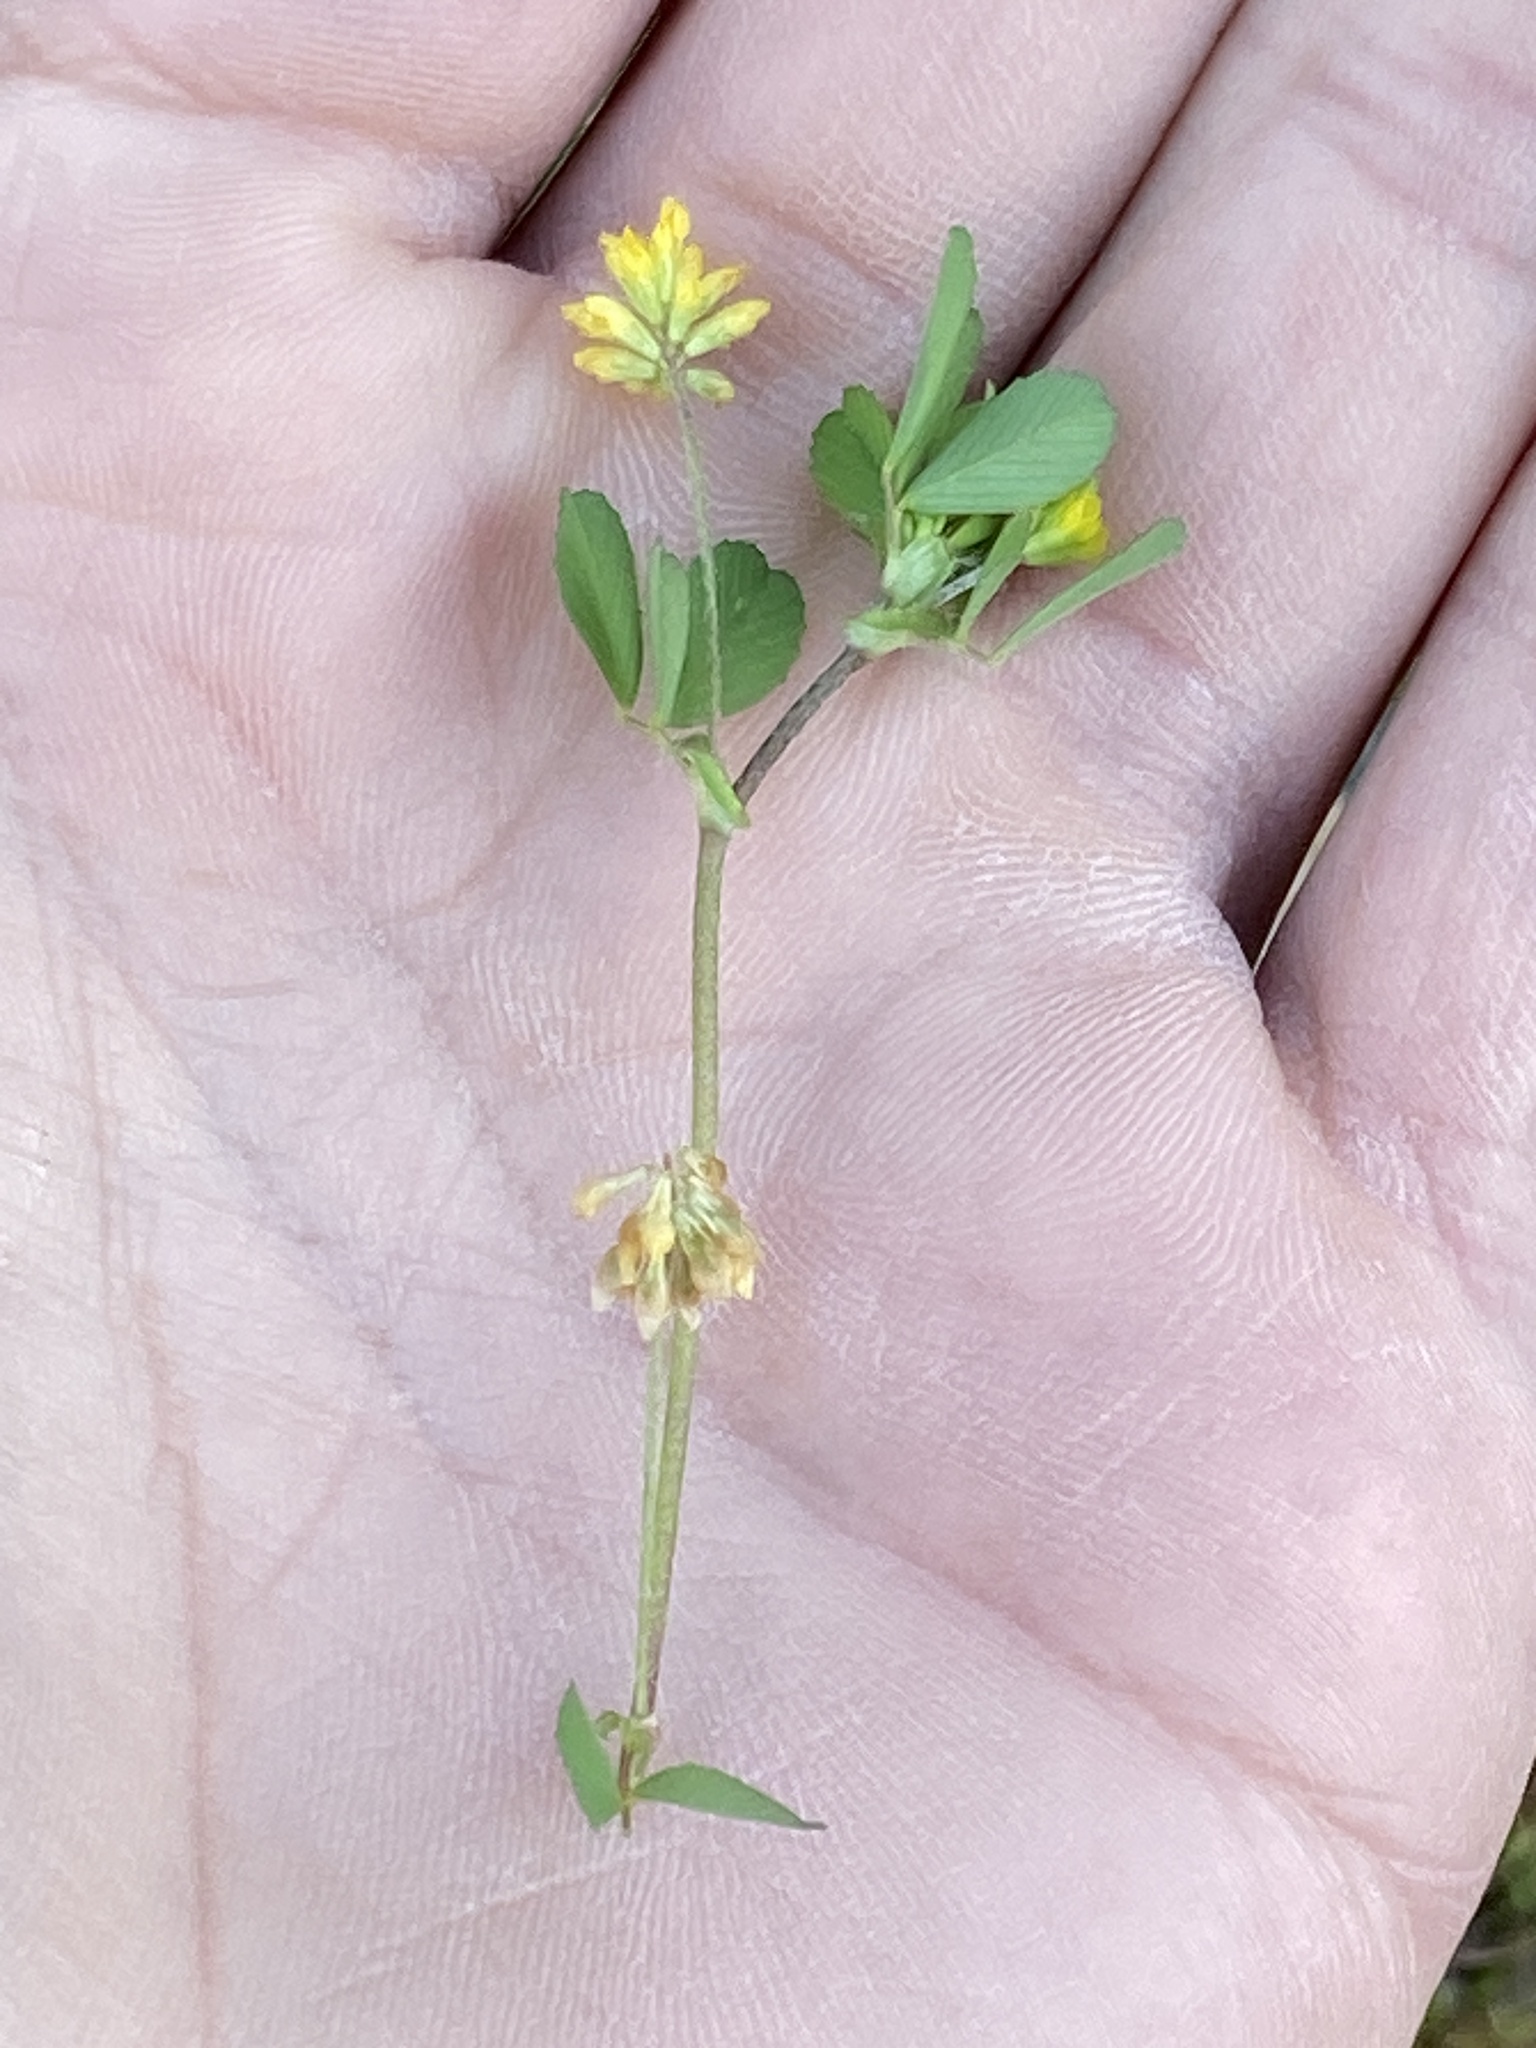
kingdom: Plantae
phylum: Tracheophyta
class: Magnoliopsida
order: Fabales
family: Fabaceae
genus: Trifolium
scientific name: Trifolium dubium
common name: Suckling clover
